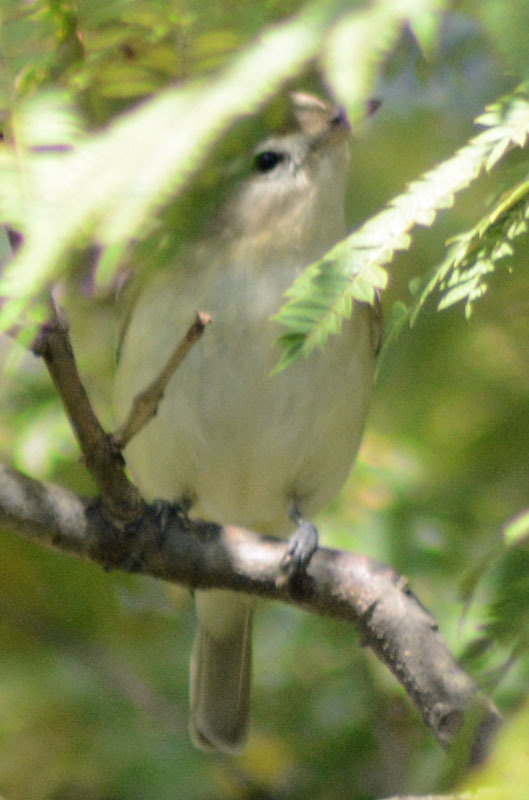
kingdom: Animalia
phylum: Chordata
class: Aves
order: Passeriformes
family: Vireonidae
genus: Vireo
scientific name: Vireo gilvus
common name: Warbling vireo
